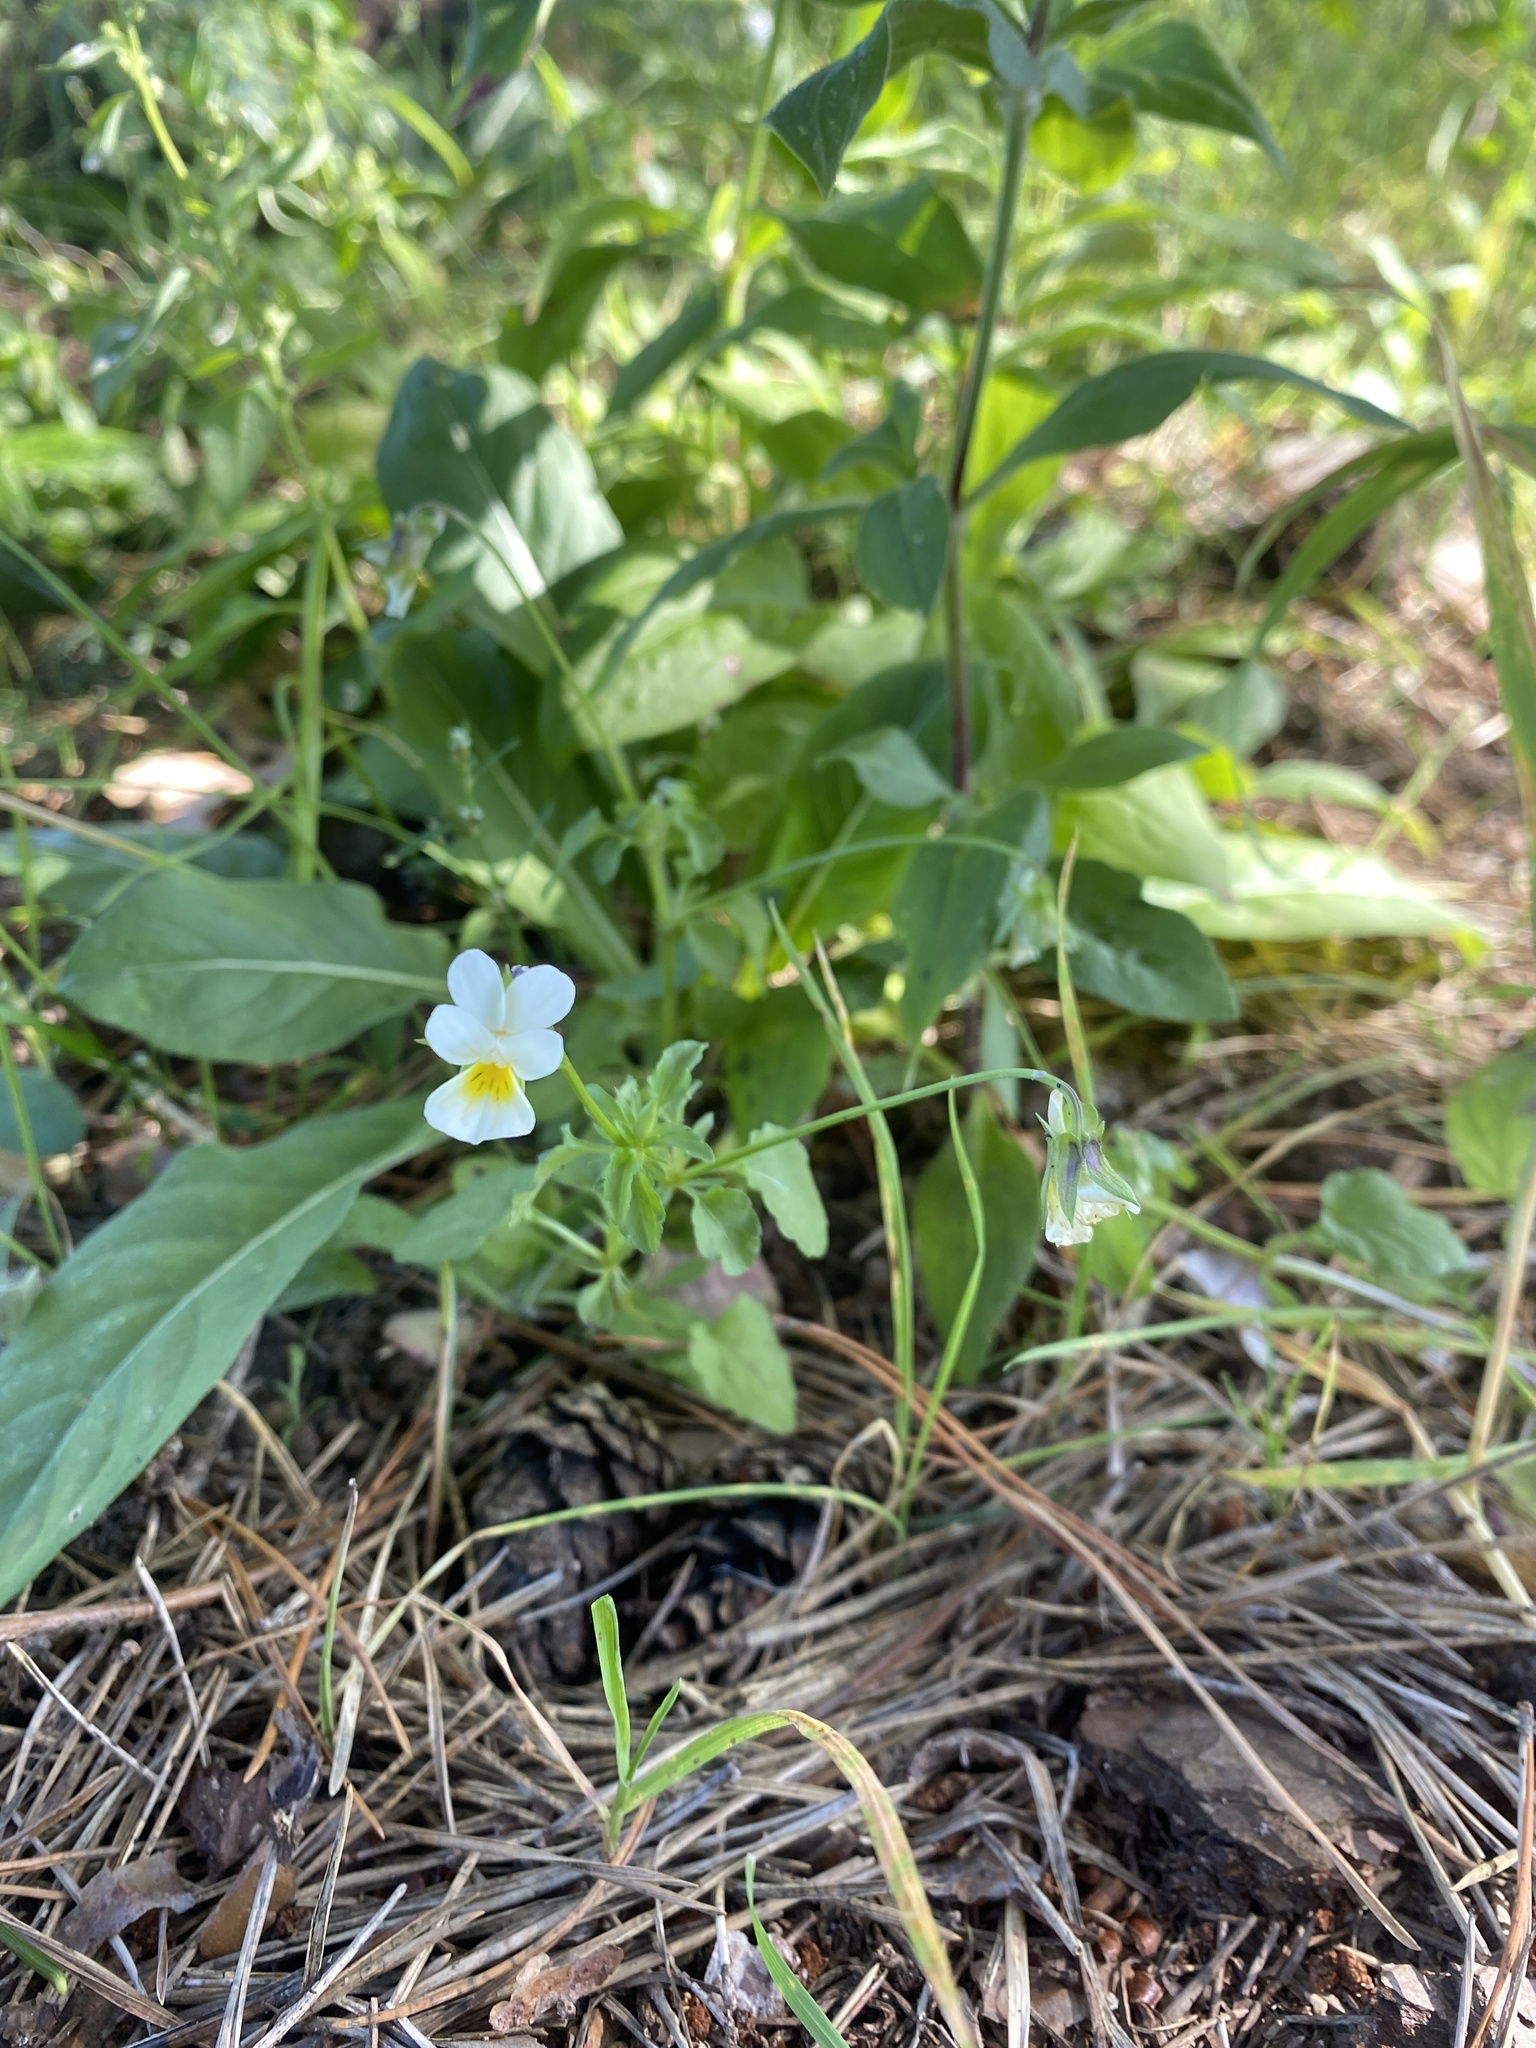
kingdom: Plantae
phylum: Tracheophyta
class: Magnoliopsida
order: Malpighiales
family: Violaceae
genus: Viola
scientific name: Viola arvensis
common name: Field pansy
